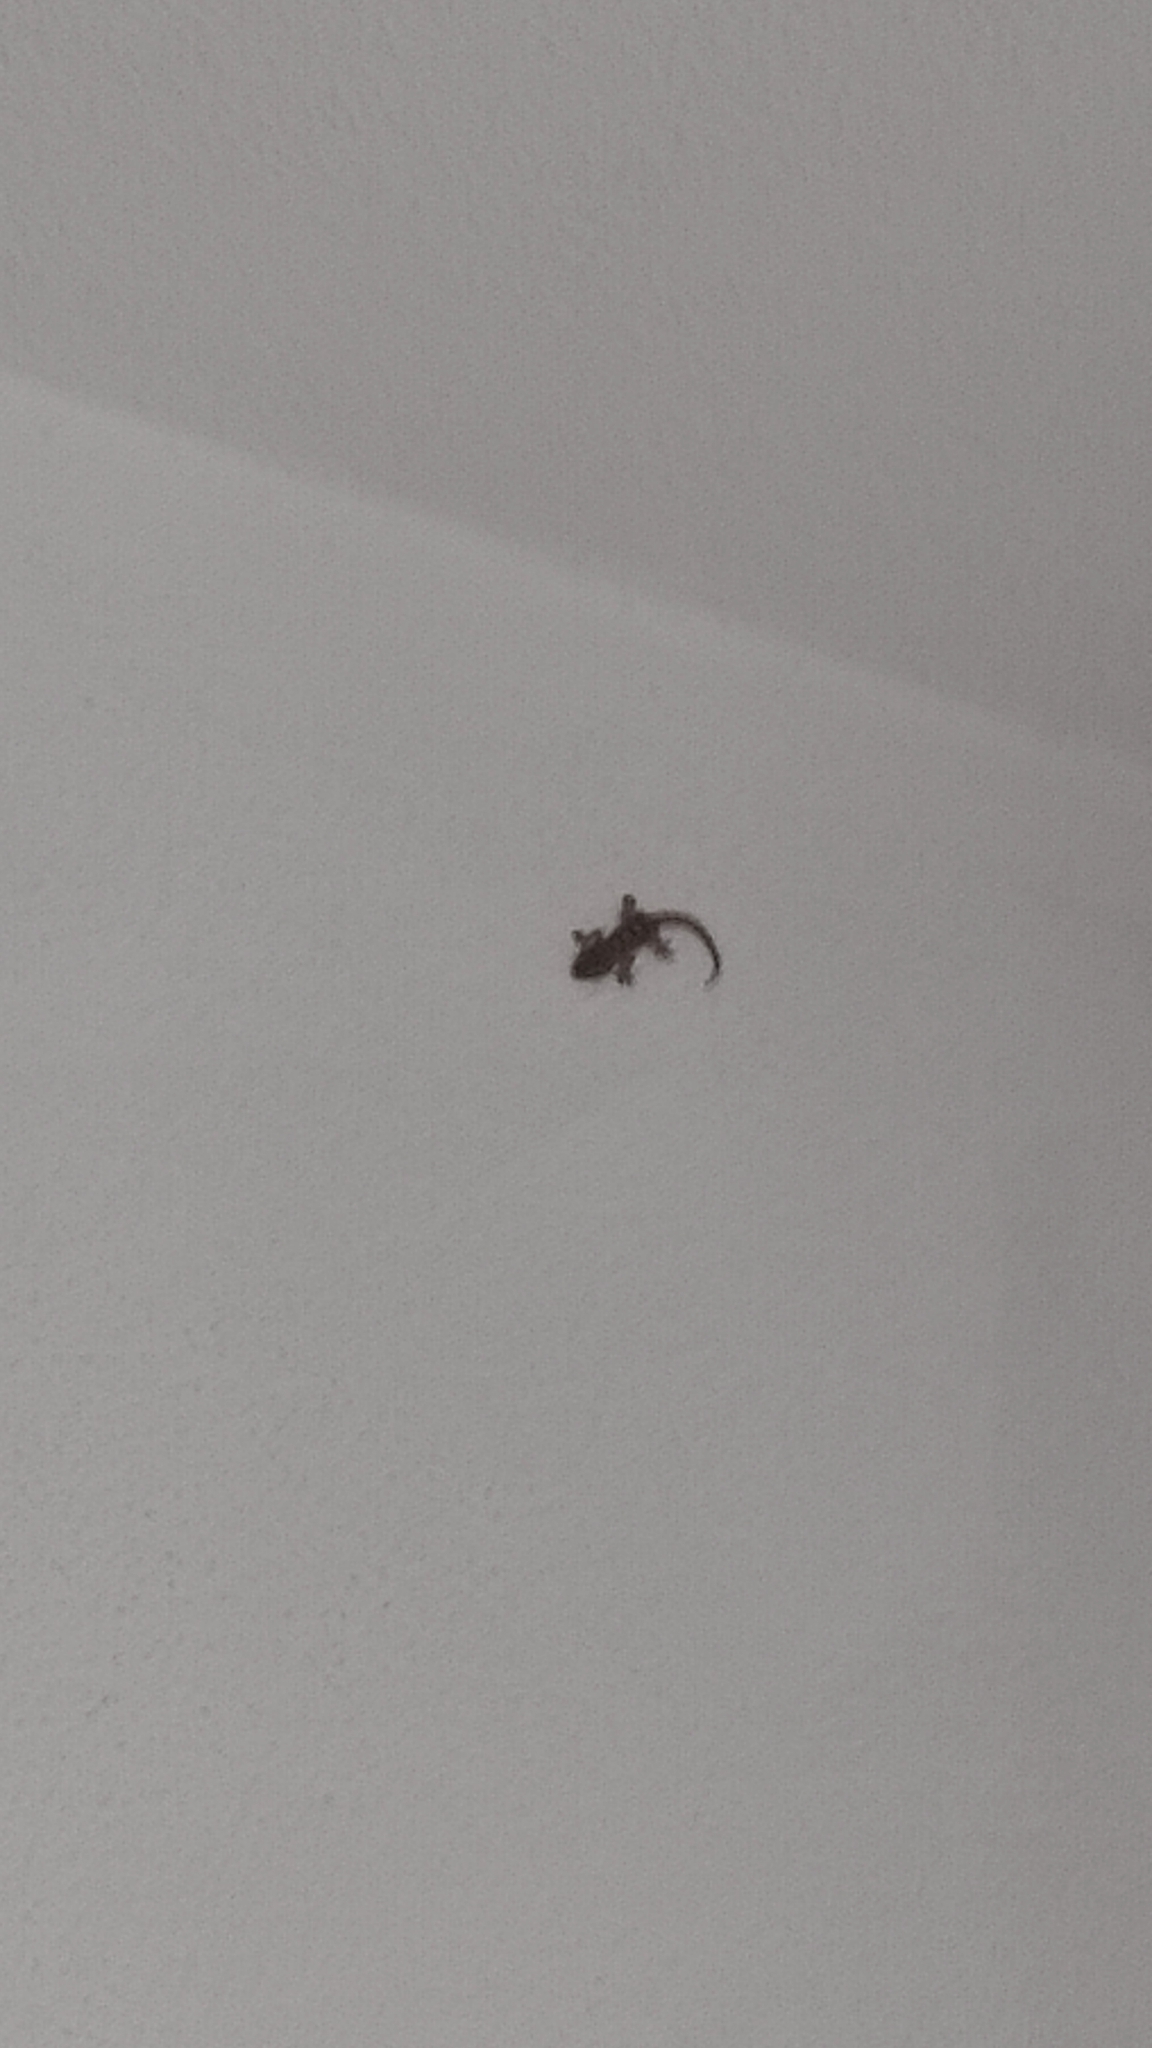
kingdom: Animalia
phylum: Chordata
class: Squamata
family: Phyllodactylidae
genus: Tarentola
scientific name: Tarentola mauritanica
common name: Moorish gecko
